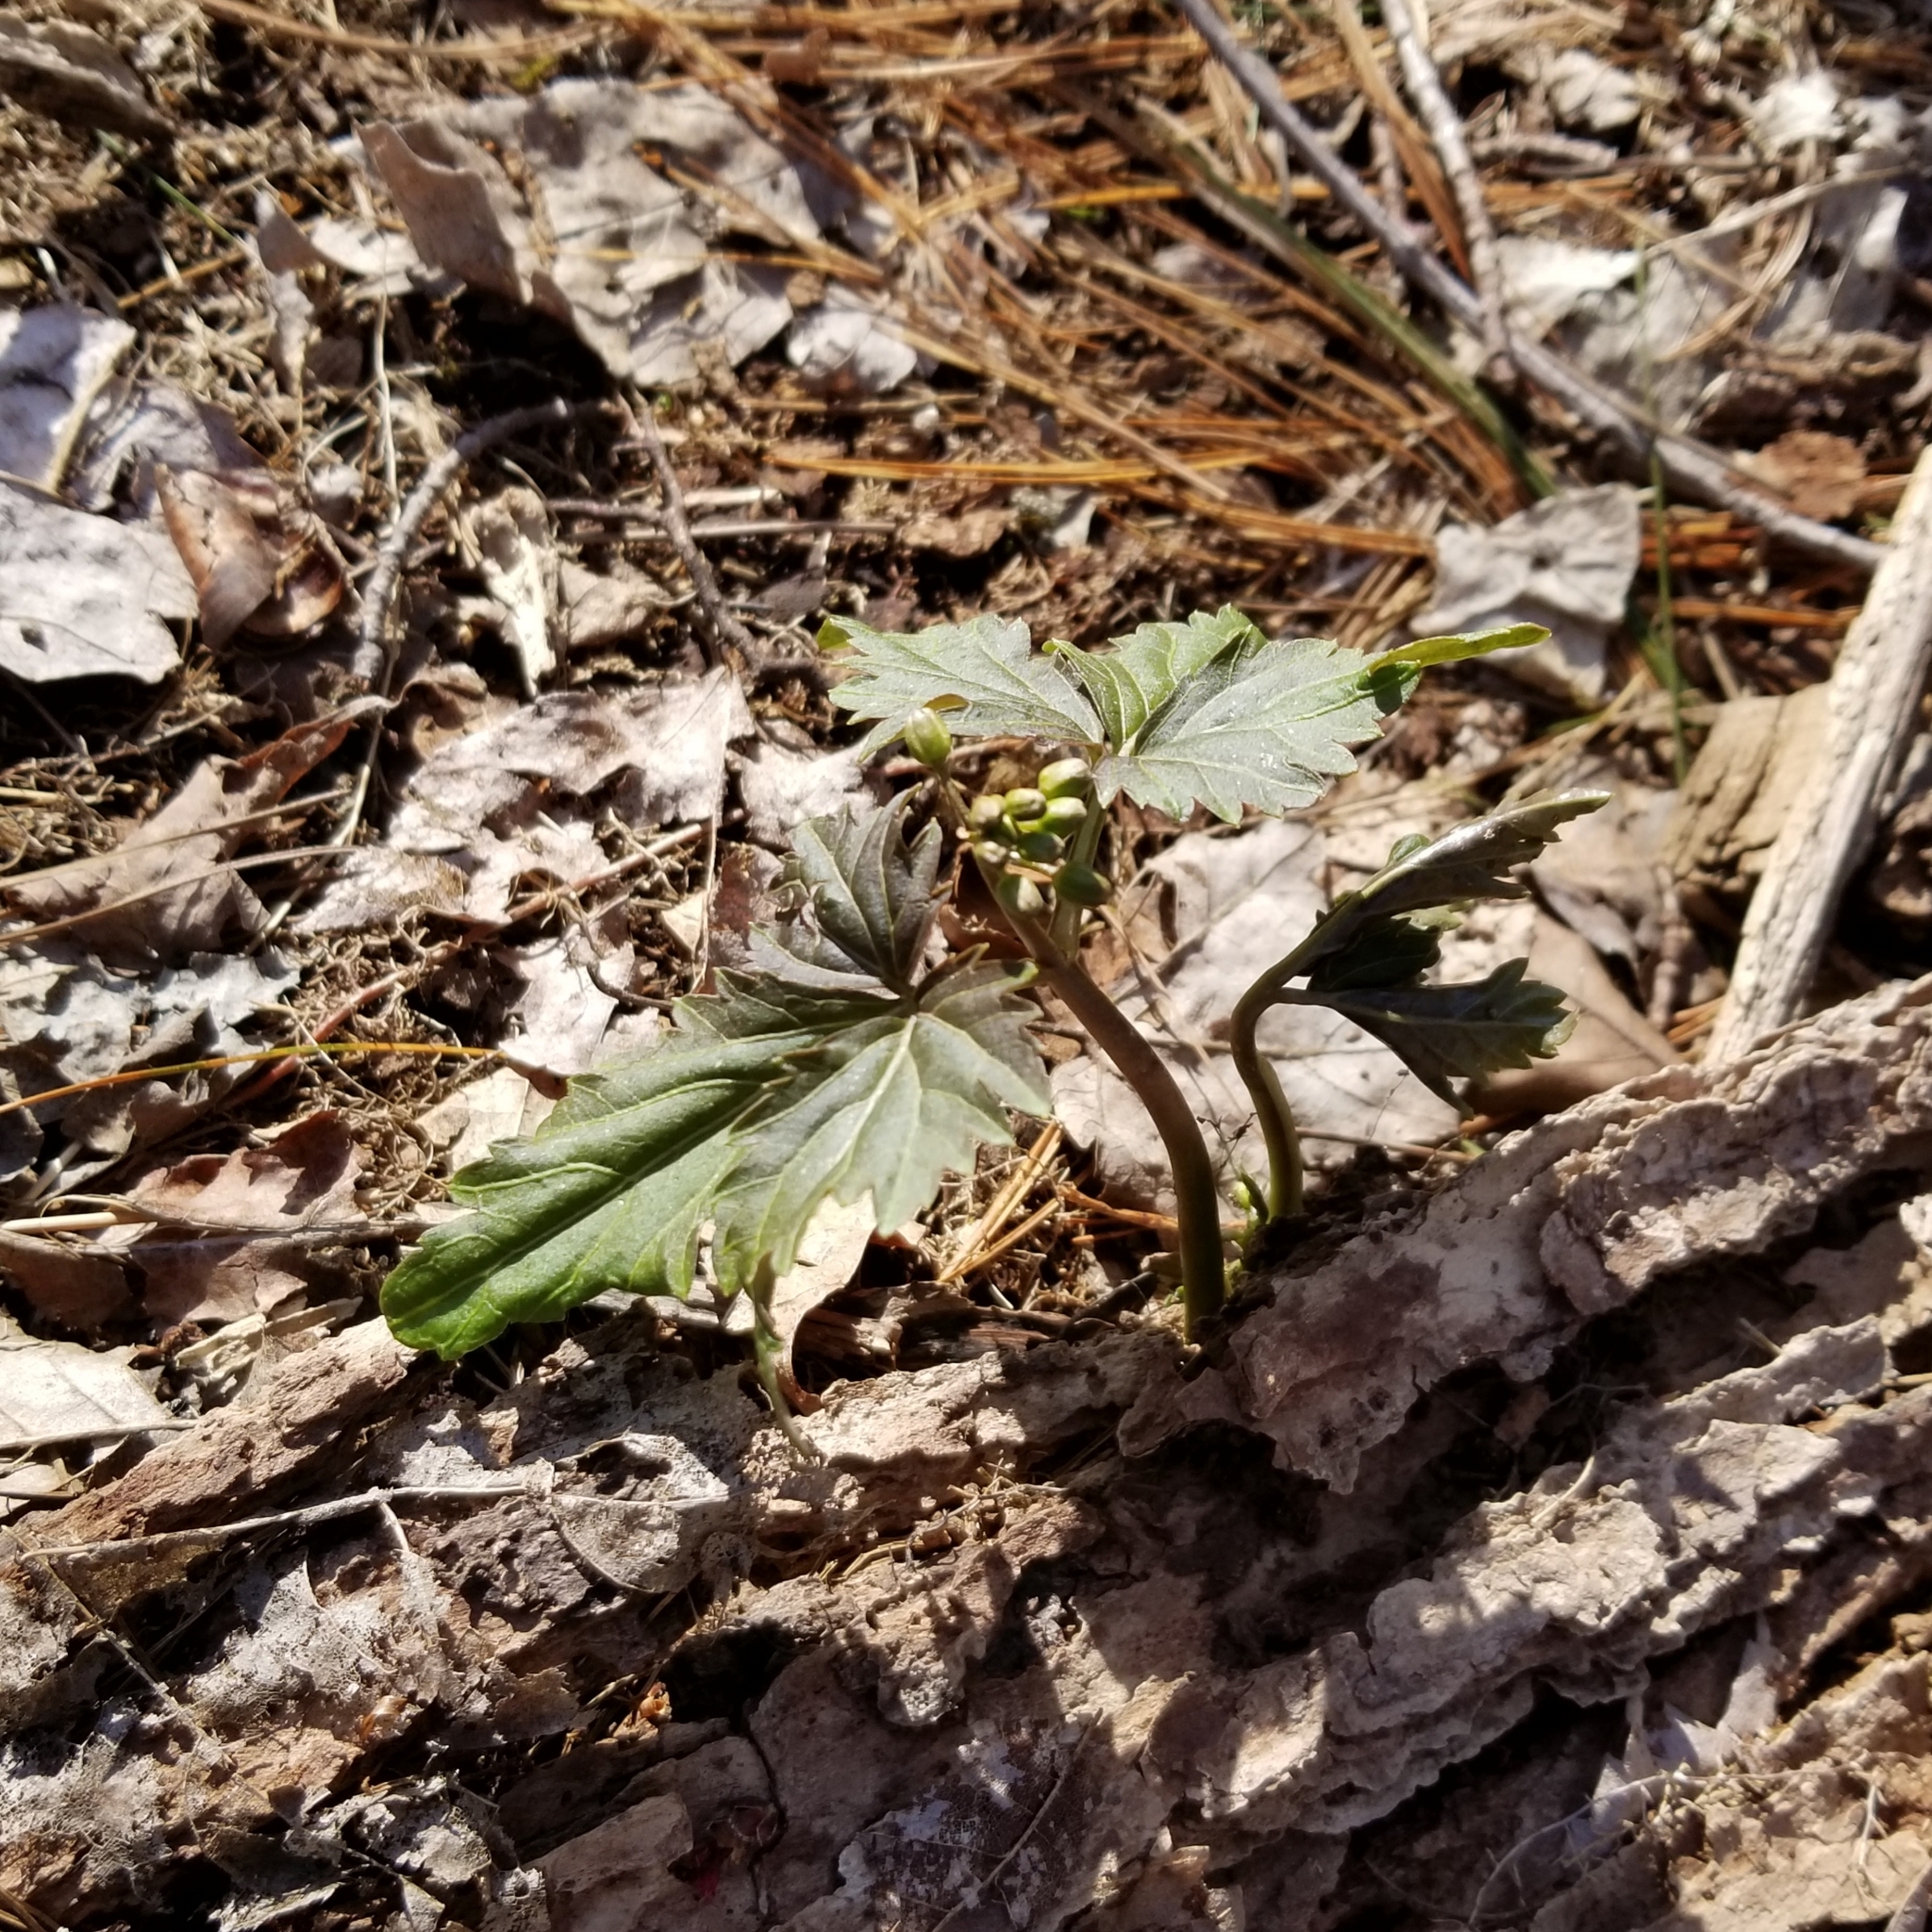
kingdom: Plantae
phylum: Tracheophyta
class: Magnoliopsida
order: Brassicales
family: Brassicaceae
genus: Cardamine
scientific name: Cardamine diphylla
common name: Broad-leaved toothwort
